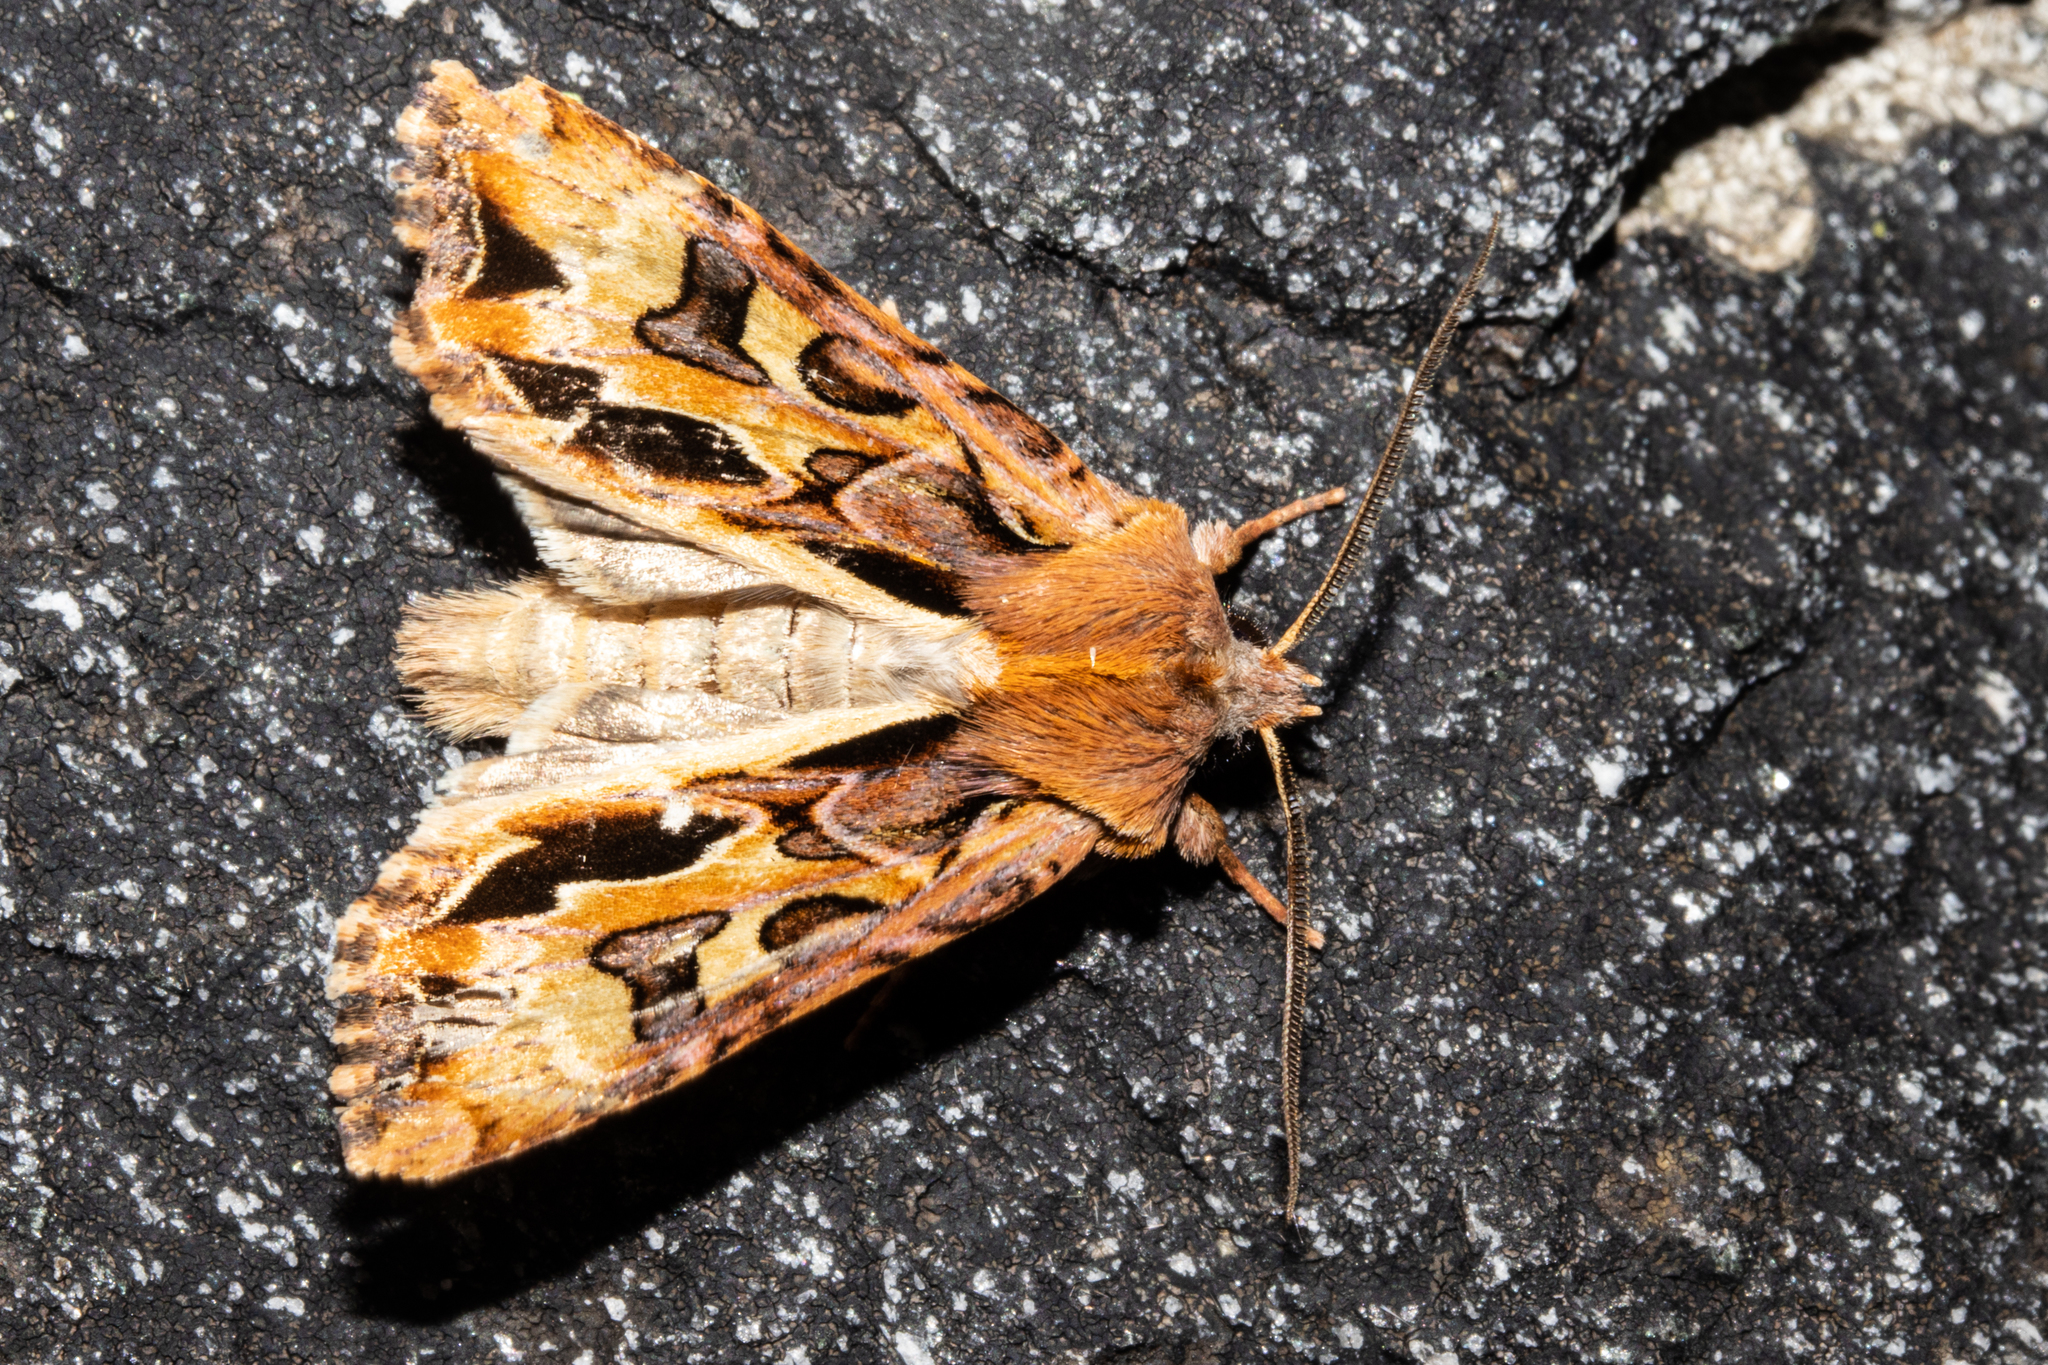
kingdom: Animalia
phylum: Arthropoda
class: Insecta
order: Lepidoptera
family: Noctuidae
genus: Ichneutica
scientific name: Ichneutica
